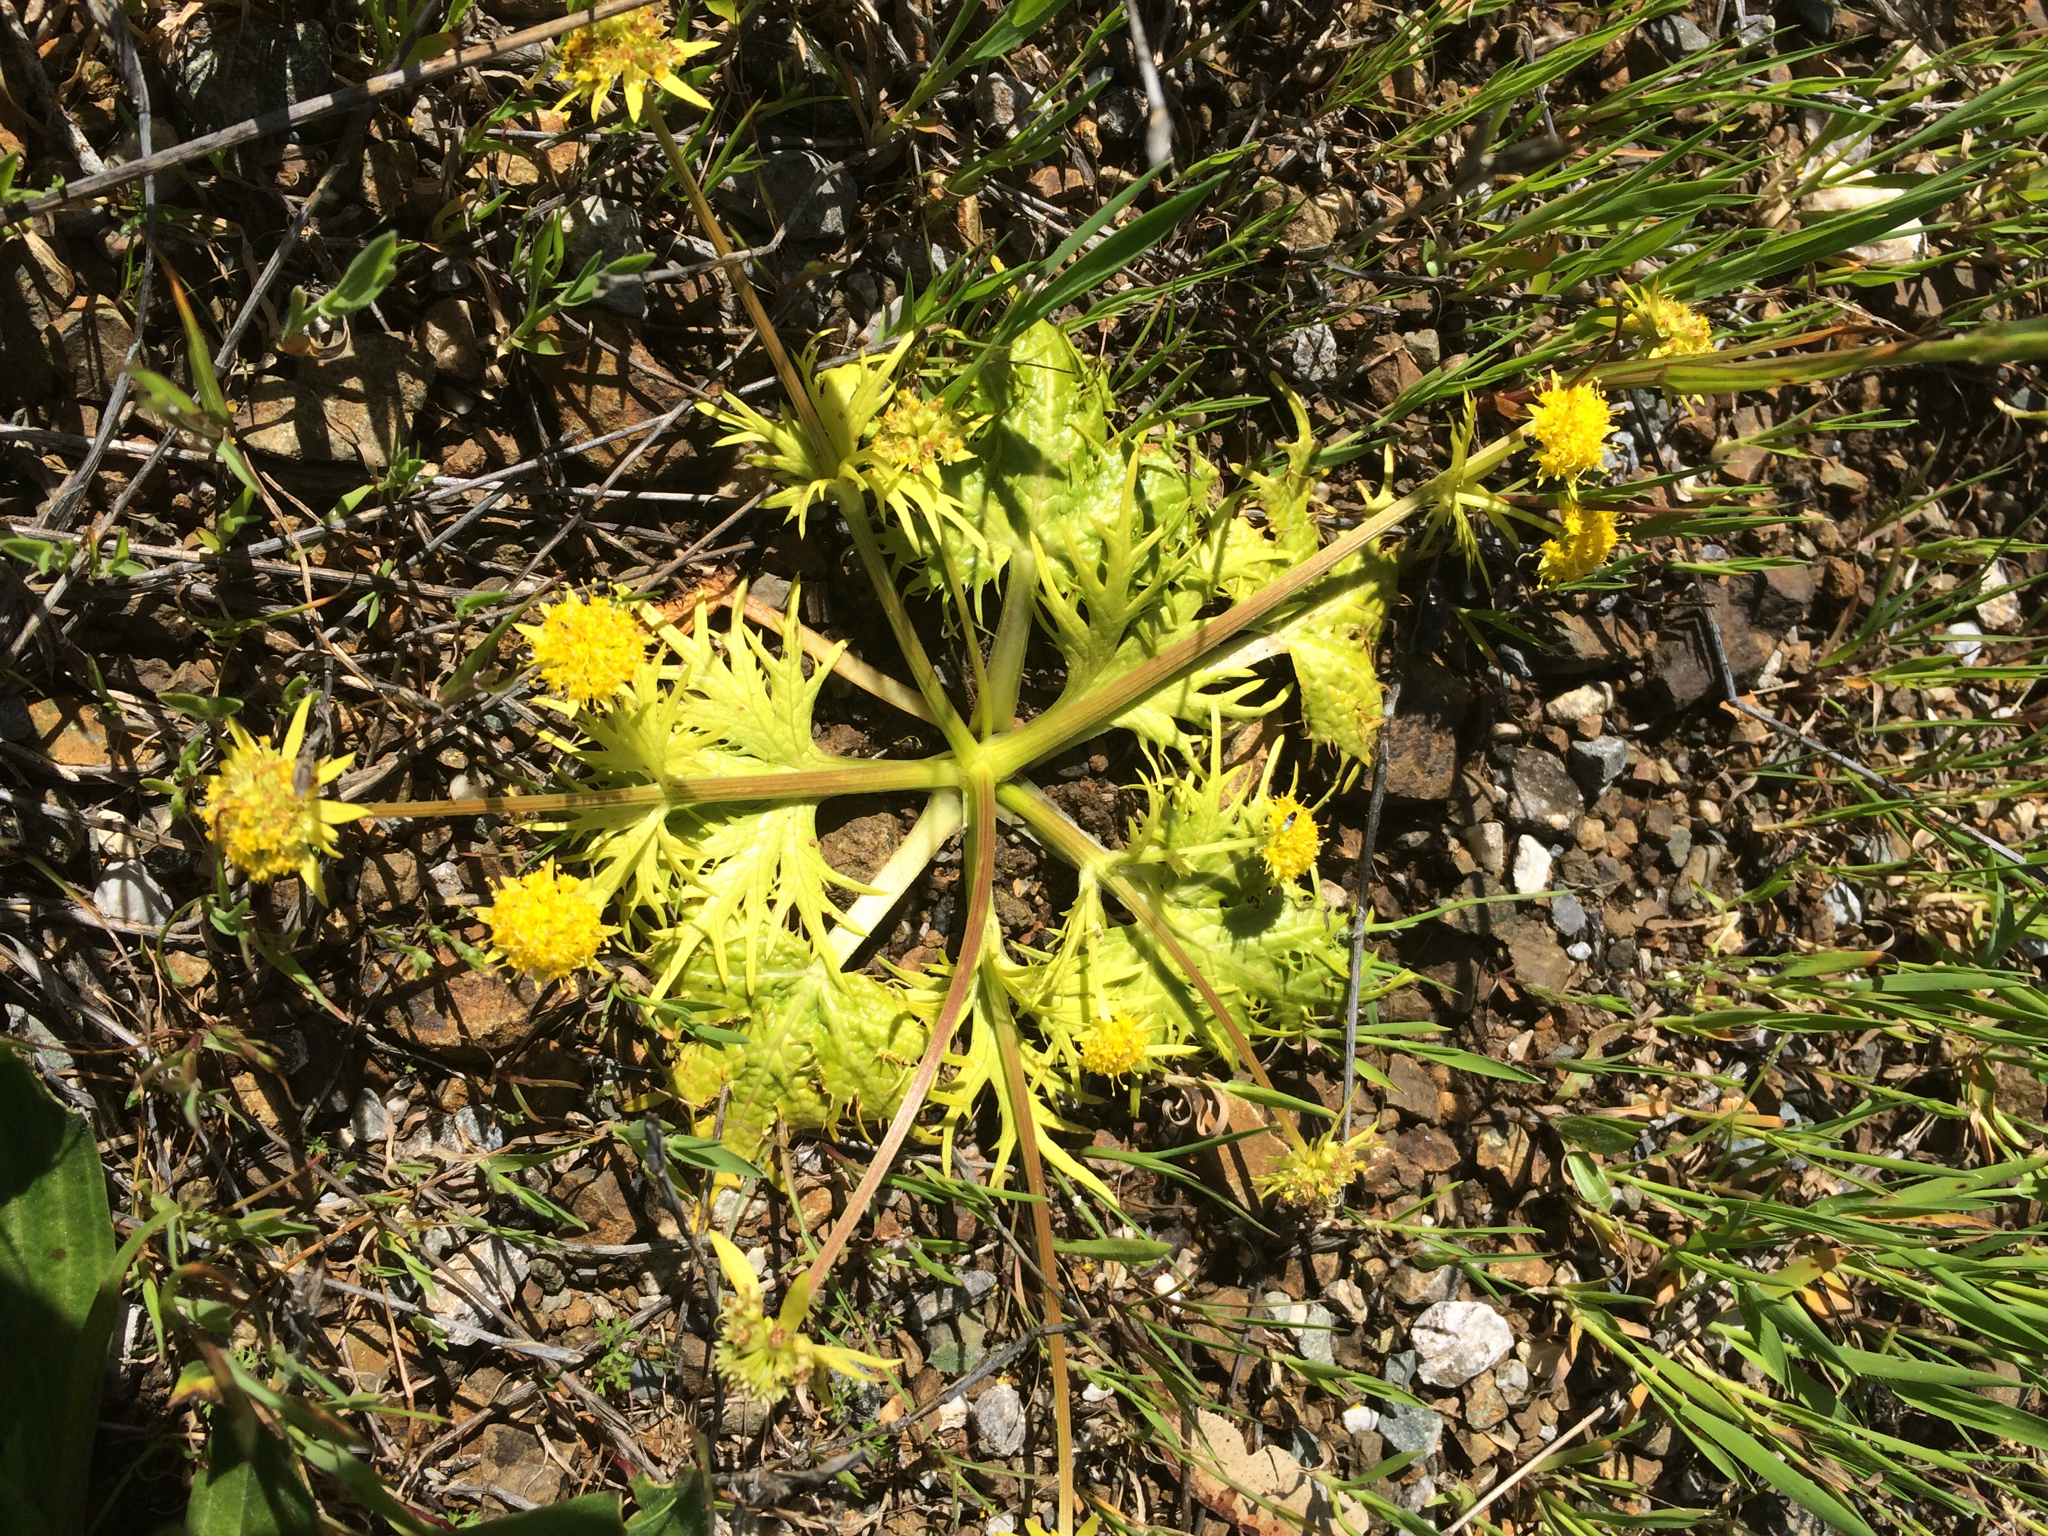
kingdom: Plantae
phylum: Tracheophyta
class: Magnoliopsida
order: Apiales
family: Apiaceae
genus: Sanicula
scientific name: Sanicula arctopoides
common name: Footsteps-of-spring
